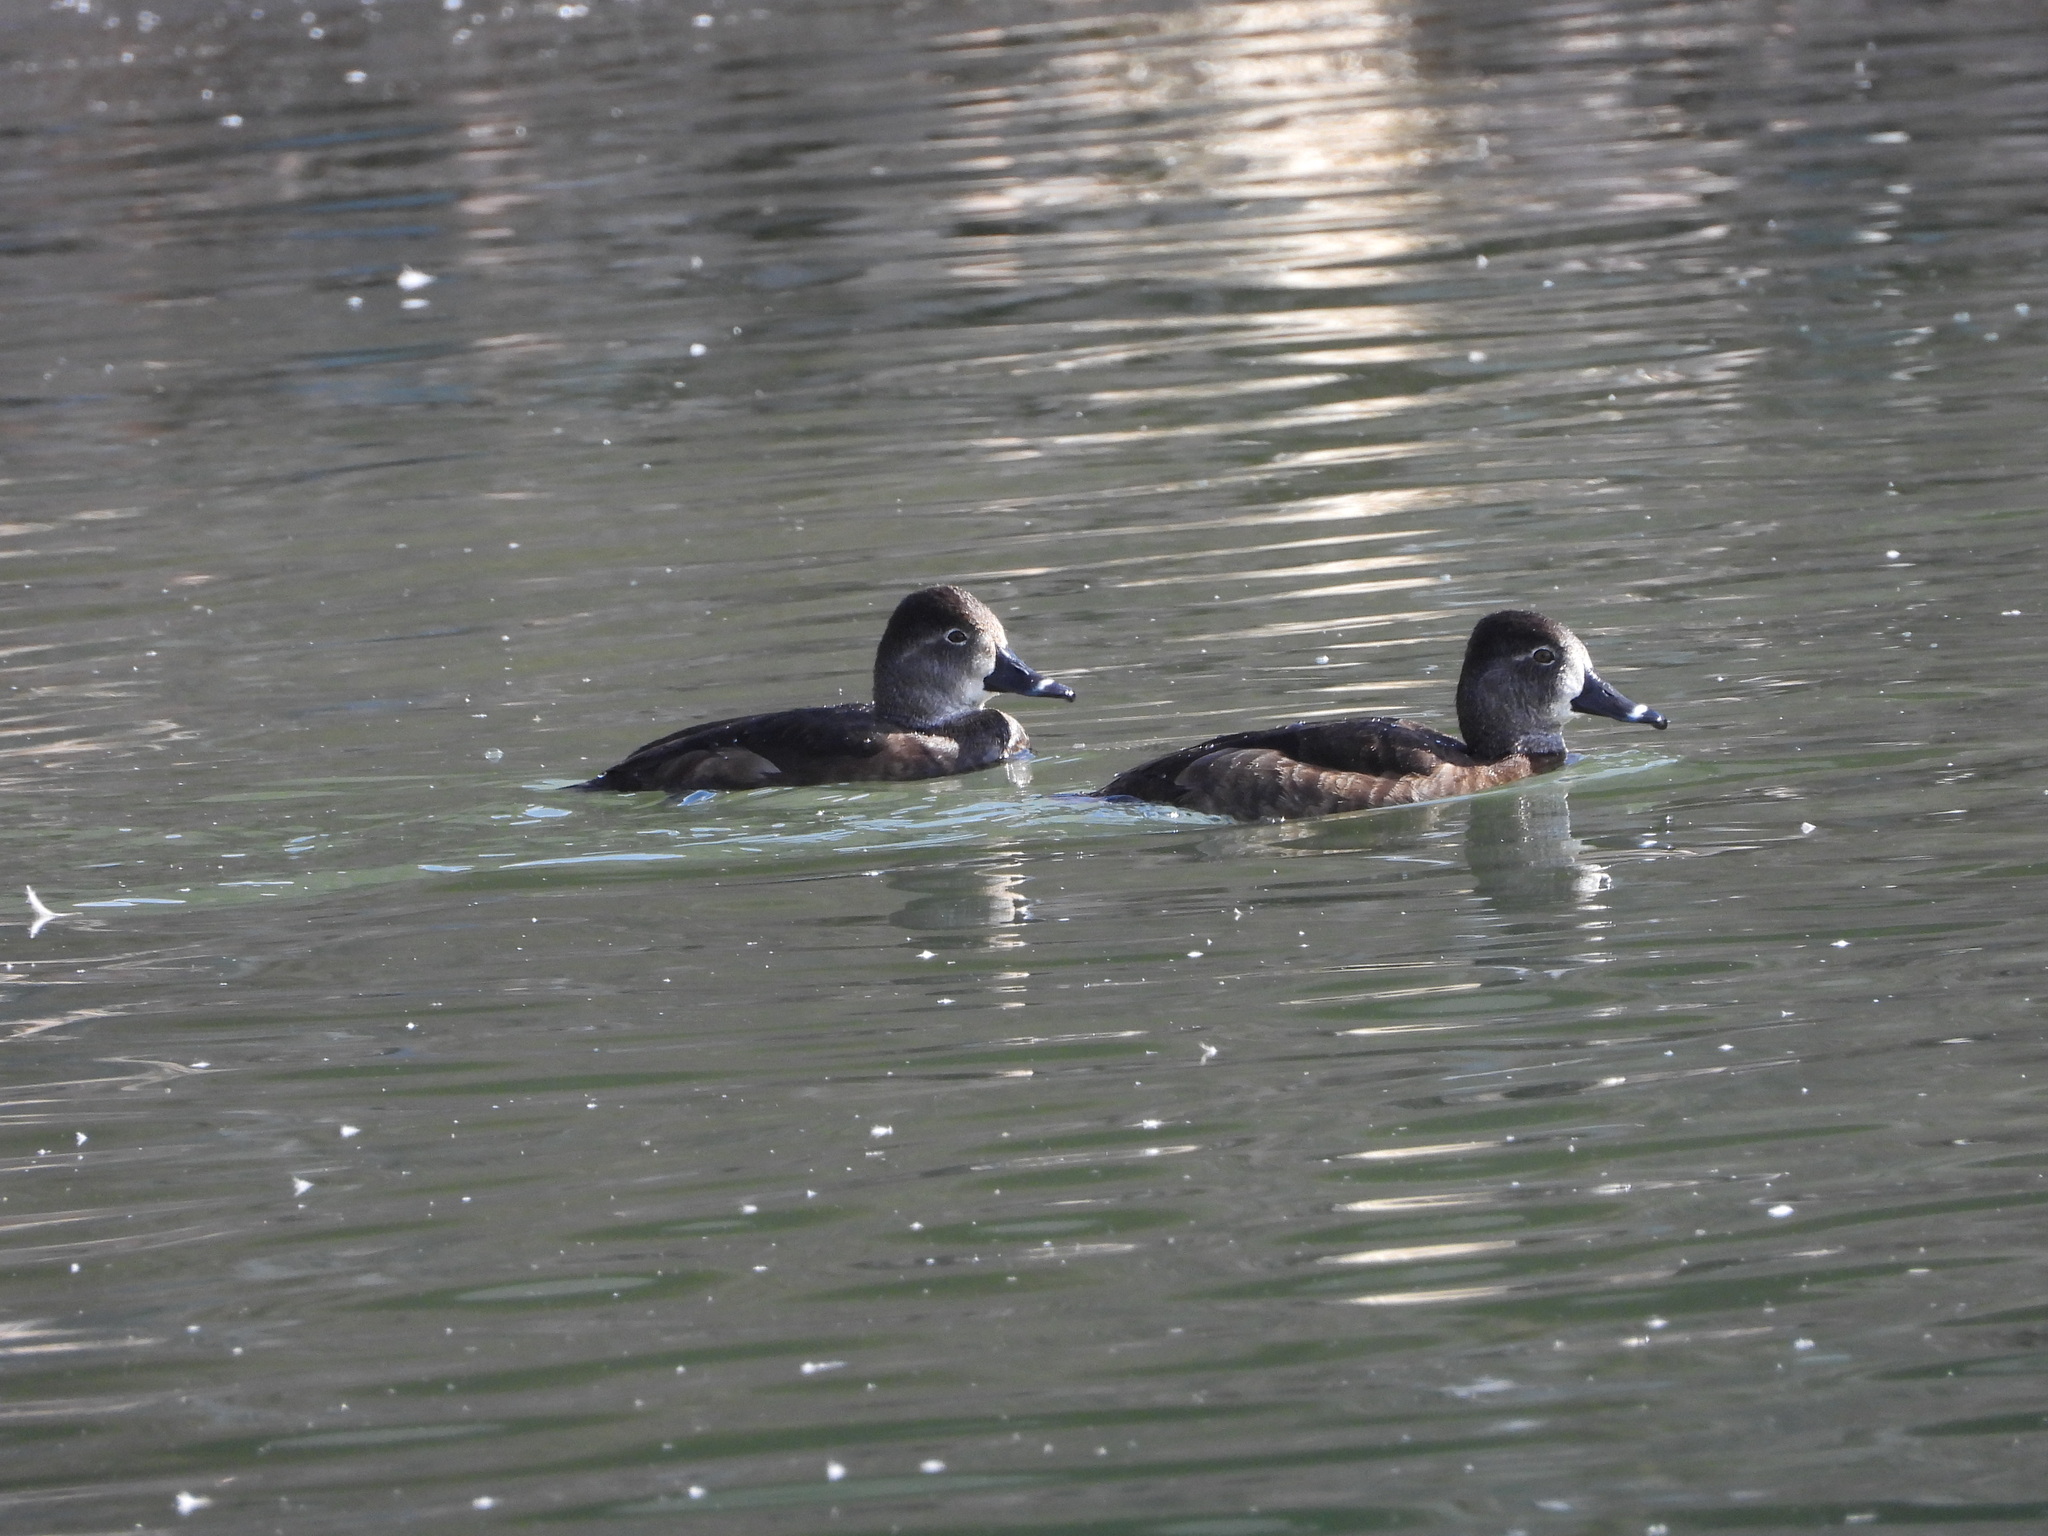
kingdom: Animalia
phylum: Chordata
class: Aves
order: Anseriformes
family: Anatidae
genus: Aythya
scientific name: Aythya collaris
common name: Ring-necked duck
